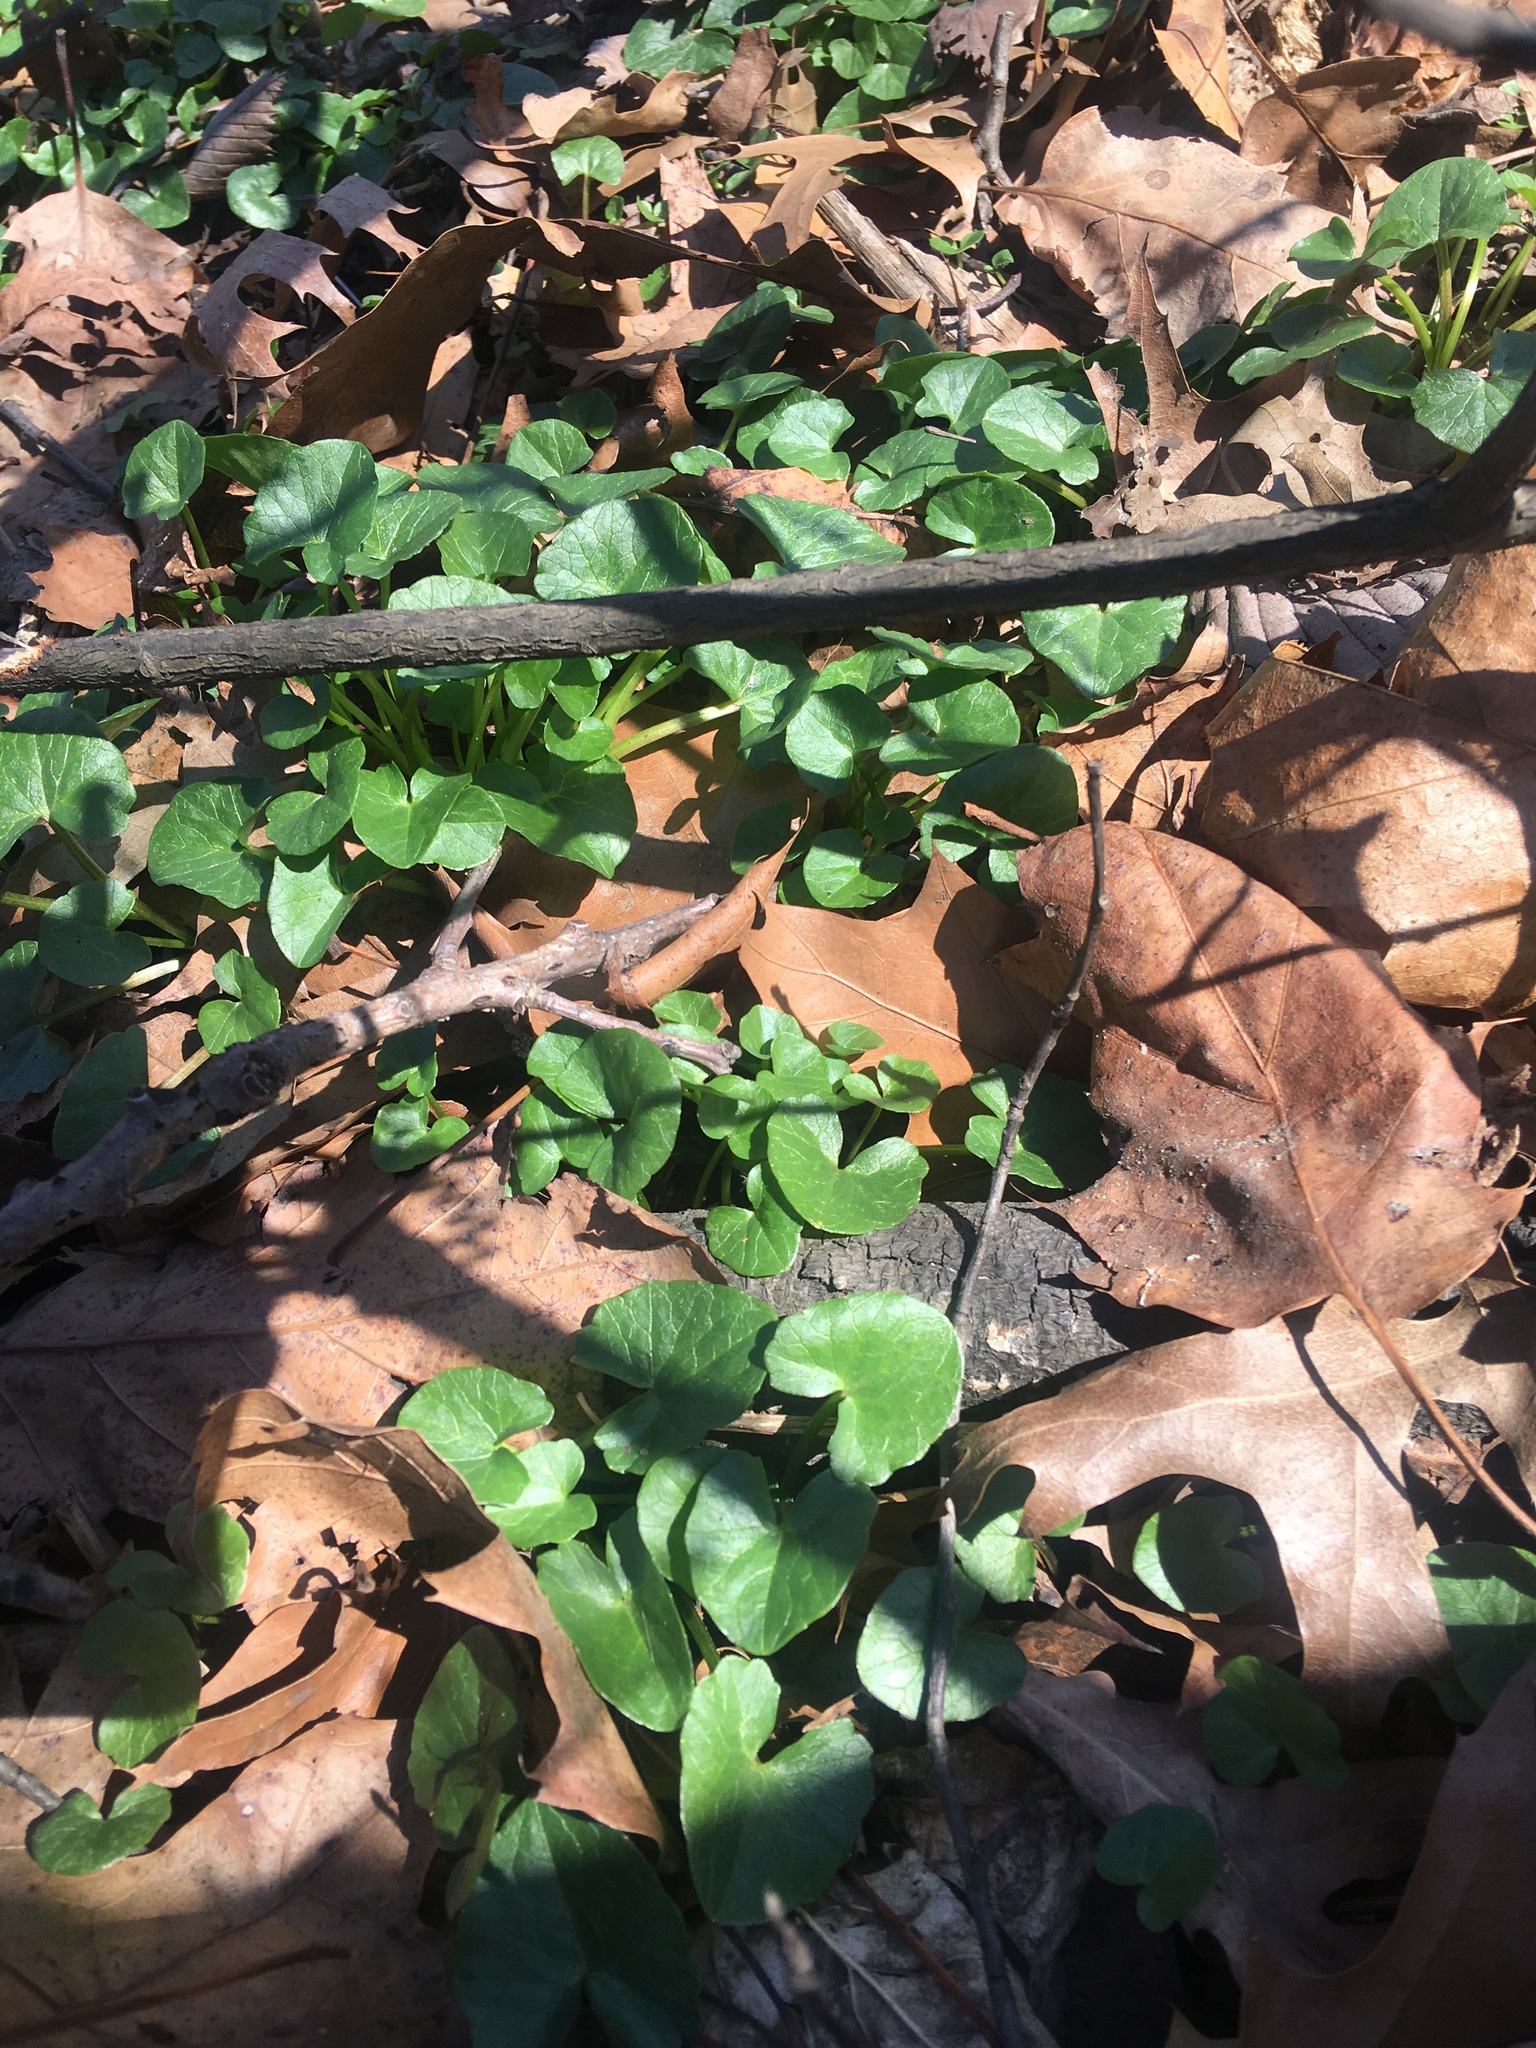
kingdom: Plantae
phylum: Tracheophyta
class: Magnoliopsida
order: Ranunculales
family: Ranunculaceae
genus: Ficaria
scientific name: Ficaria verna
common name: Lesser celandine
